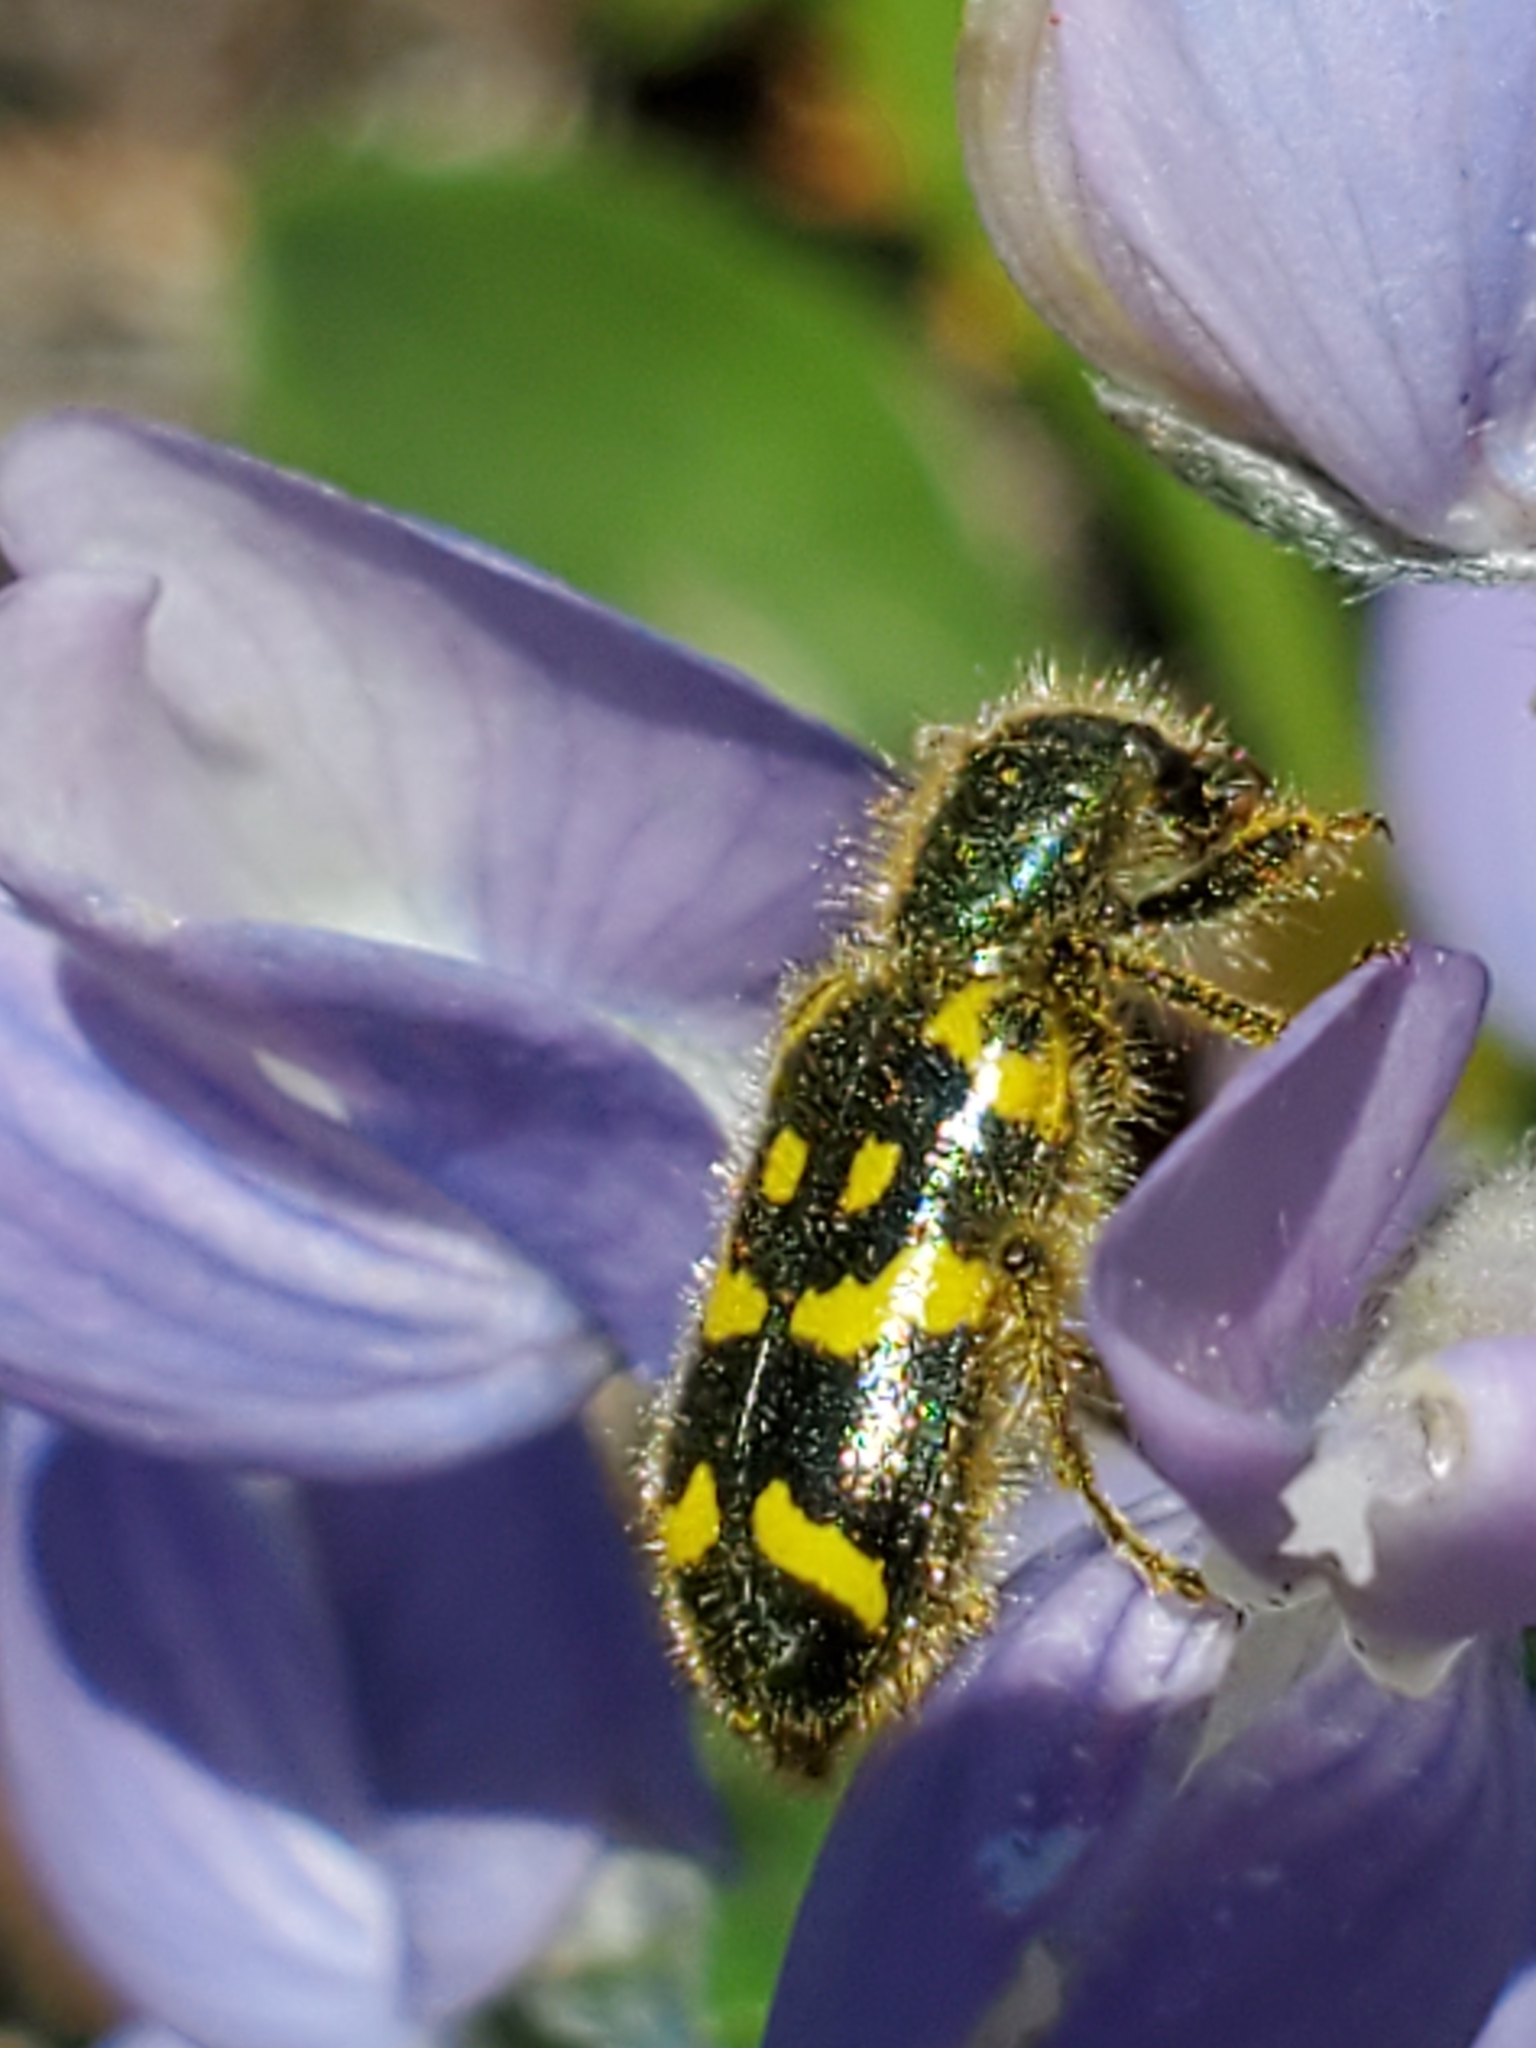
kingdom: Animalia
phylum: Arthropoda
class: Insecta
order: Coleoptera
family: Cleridae
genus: Trichodes
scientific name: Trichodes ornatus
